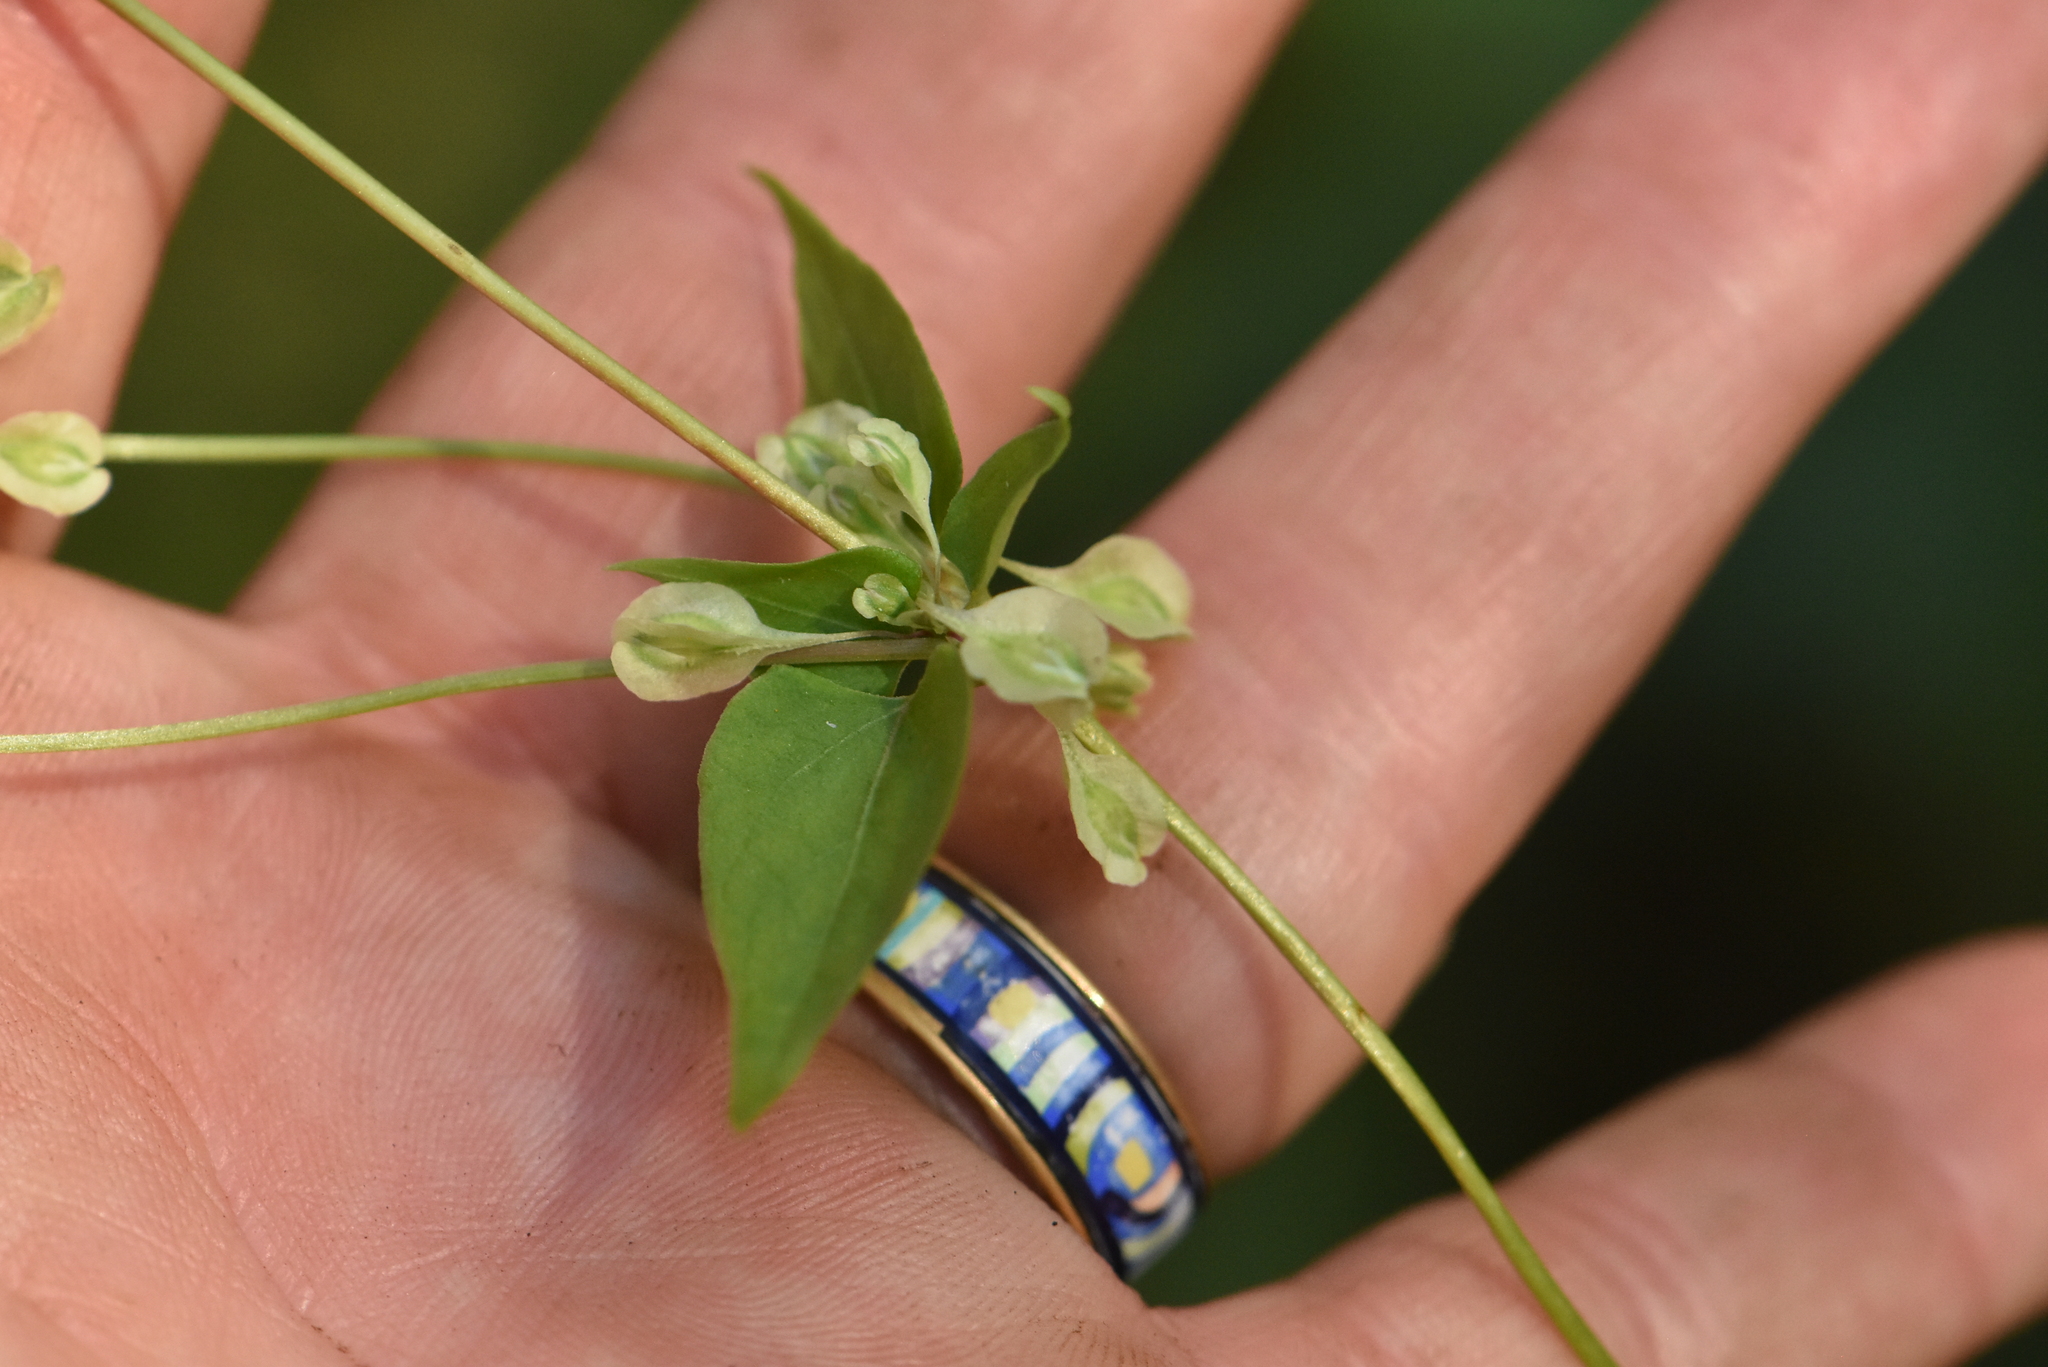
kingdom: Plantae
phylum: Tracheophyta
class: Magnoliopsida
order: Caryophyllales
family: Polygonaceae
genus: Fallopia
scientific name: Fallopia dumetorum
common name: Copse-bindweed
